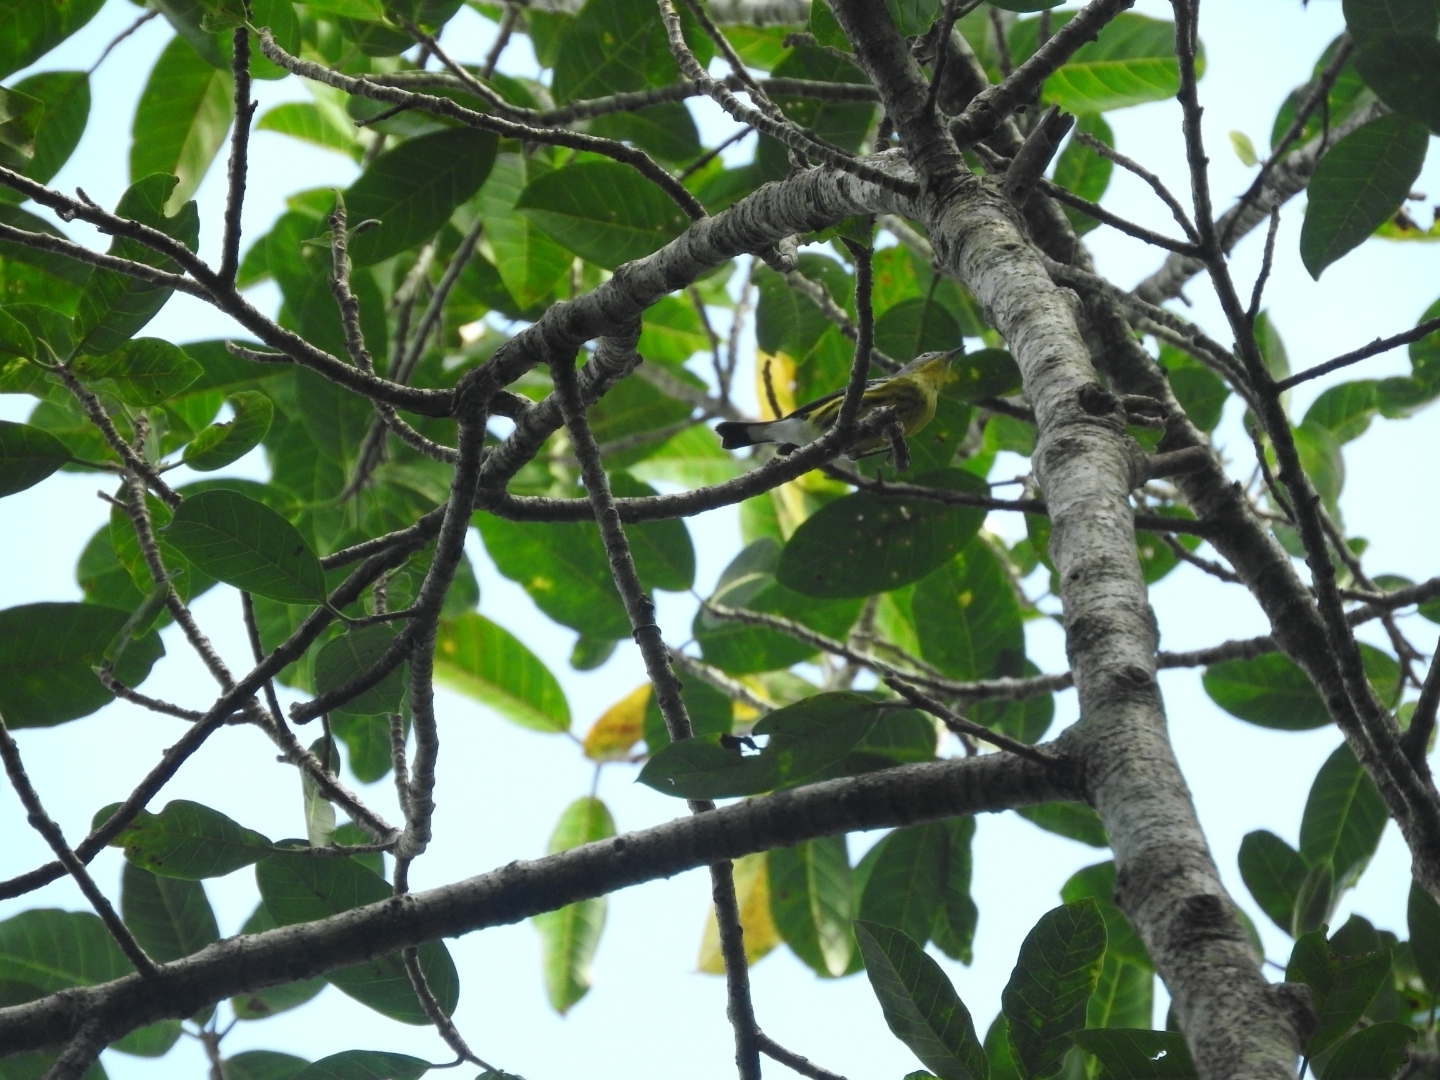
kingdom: Animalia
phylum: Chordata
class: Aves
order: Passeriformes
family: Parulidae
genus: Setophaga
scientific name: Setophaga magnolia
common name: Magnolia warbler
